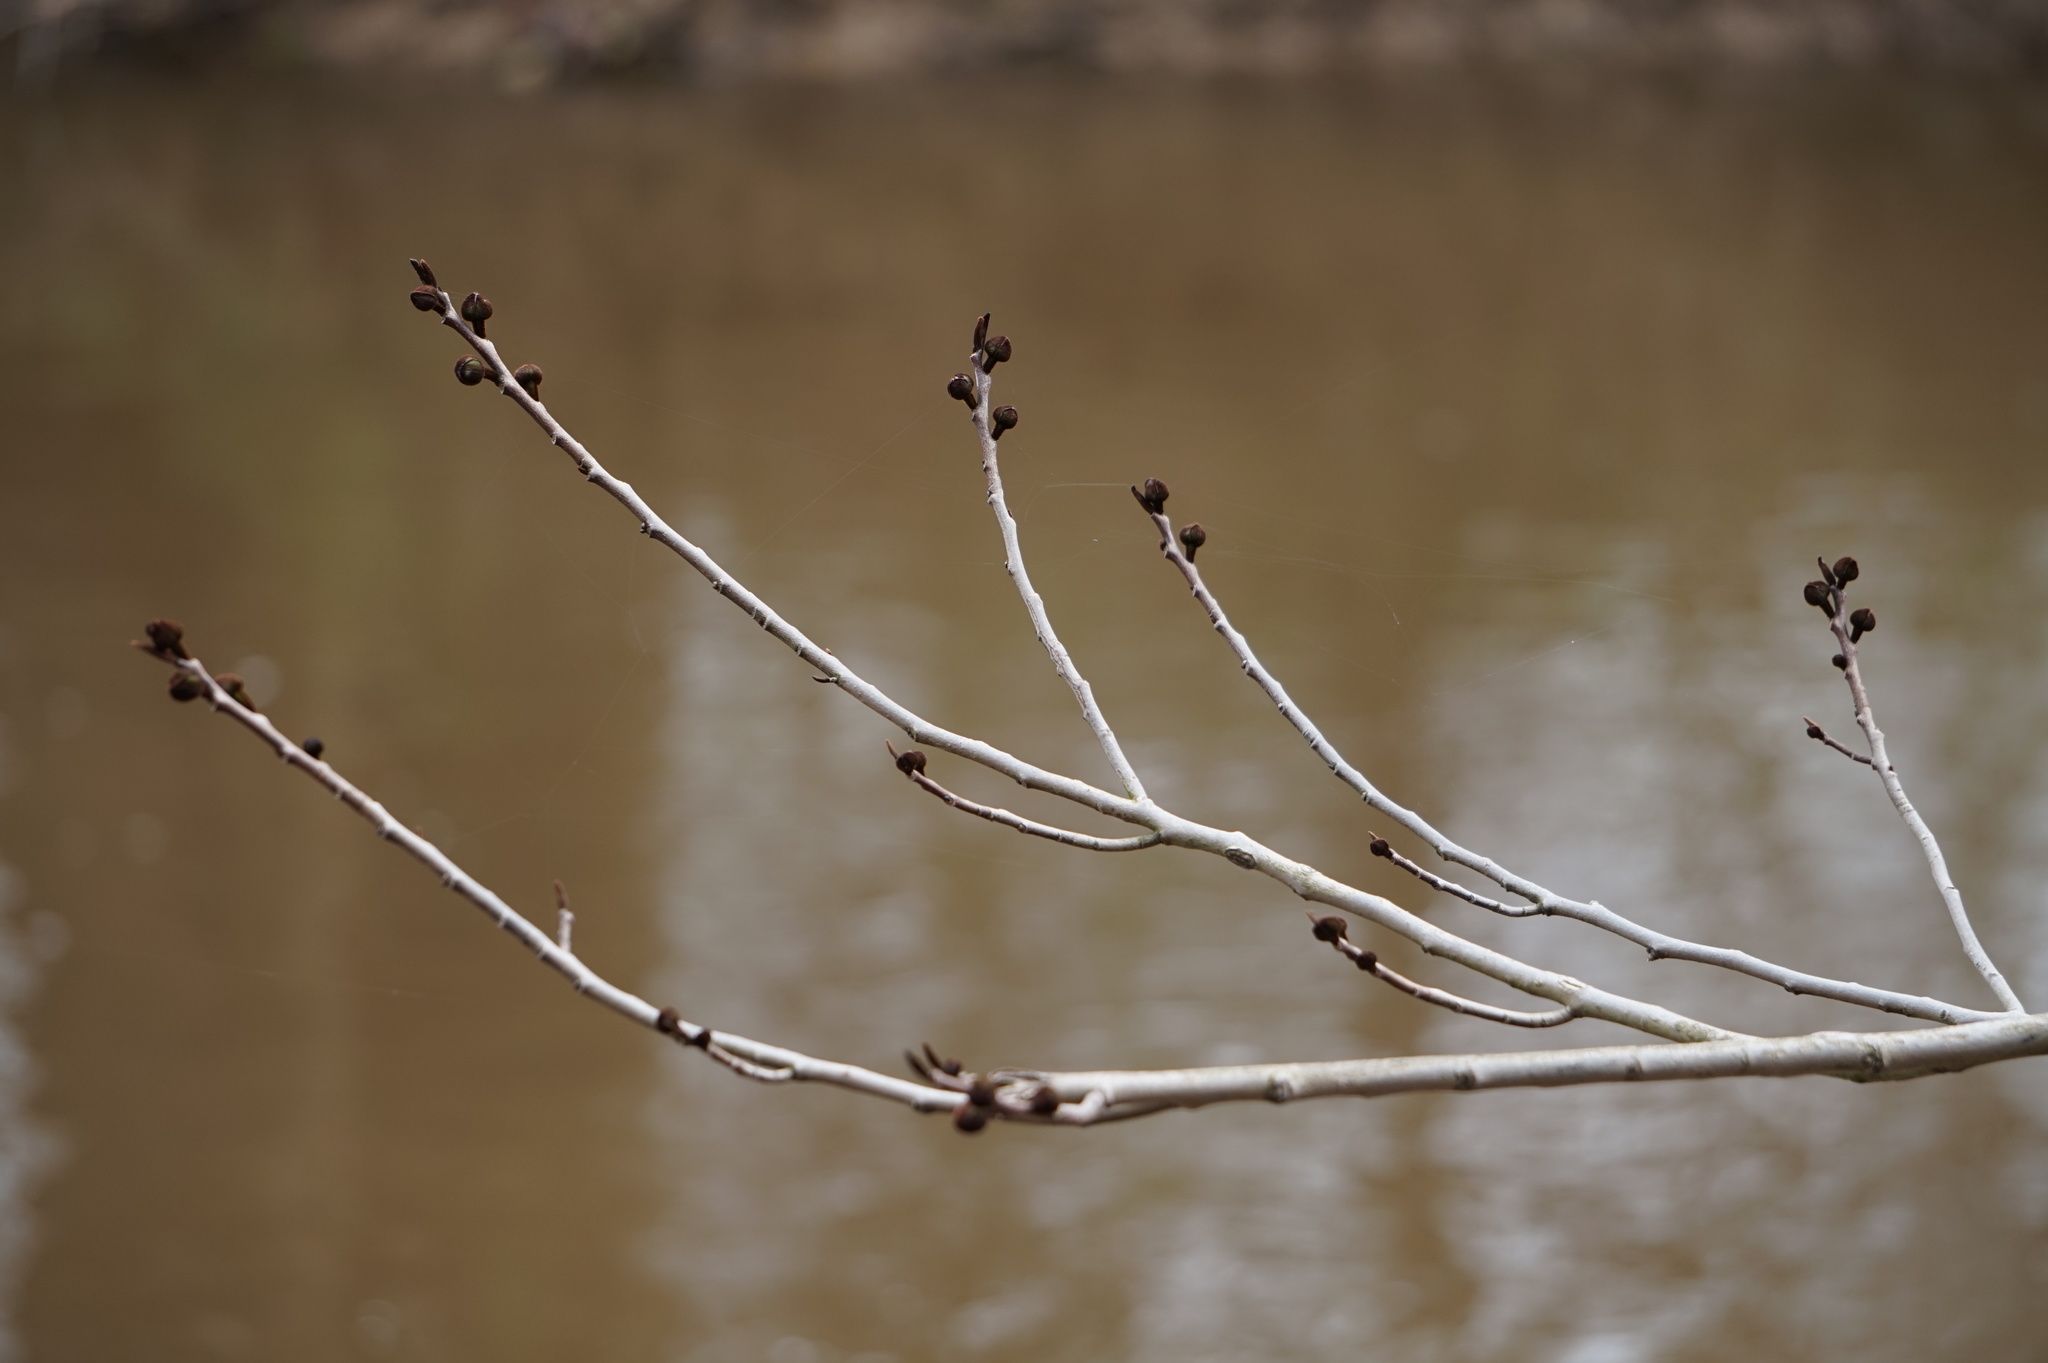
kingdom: Plantae
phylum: Tracheophyta
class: Magnoliopsida
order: Magnoliales
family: Annonaceae
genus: Asimina
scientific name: Asimina triloba
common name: Dog-banana
